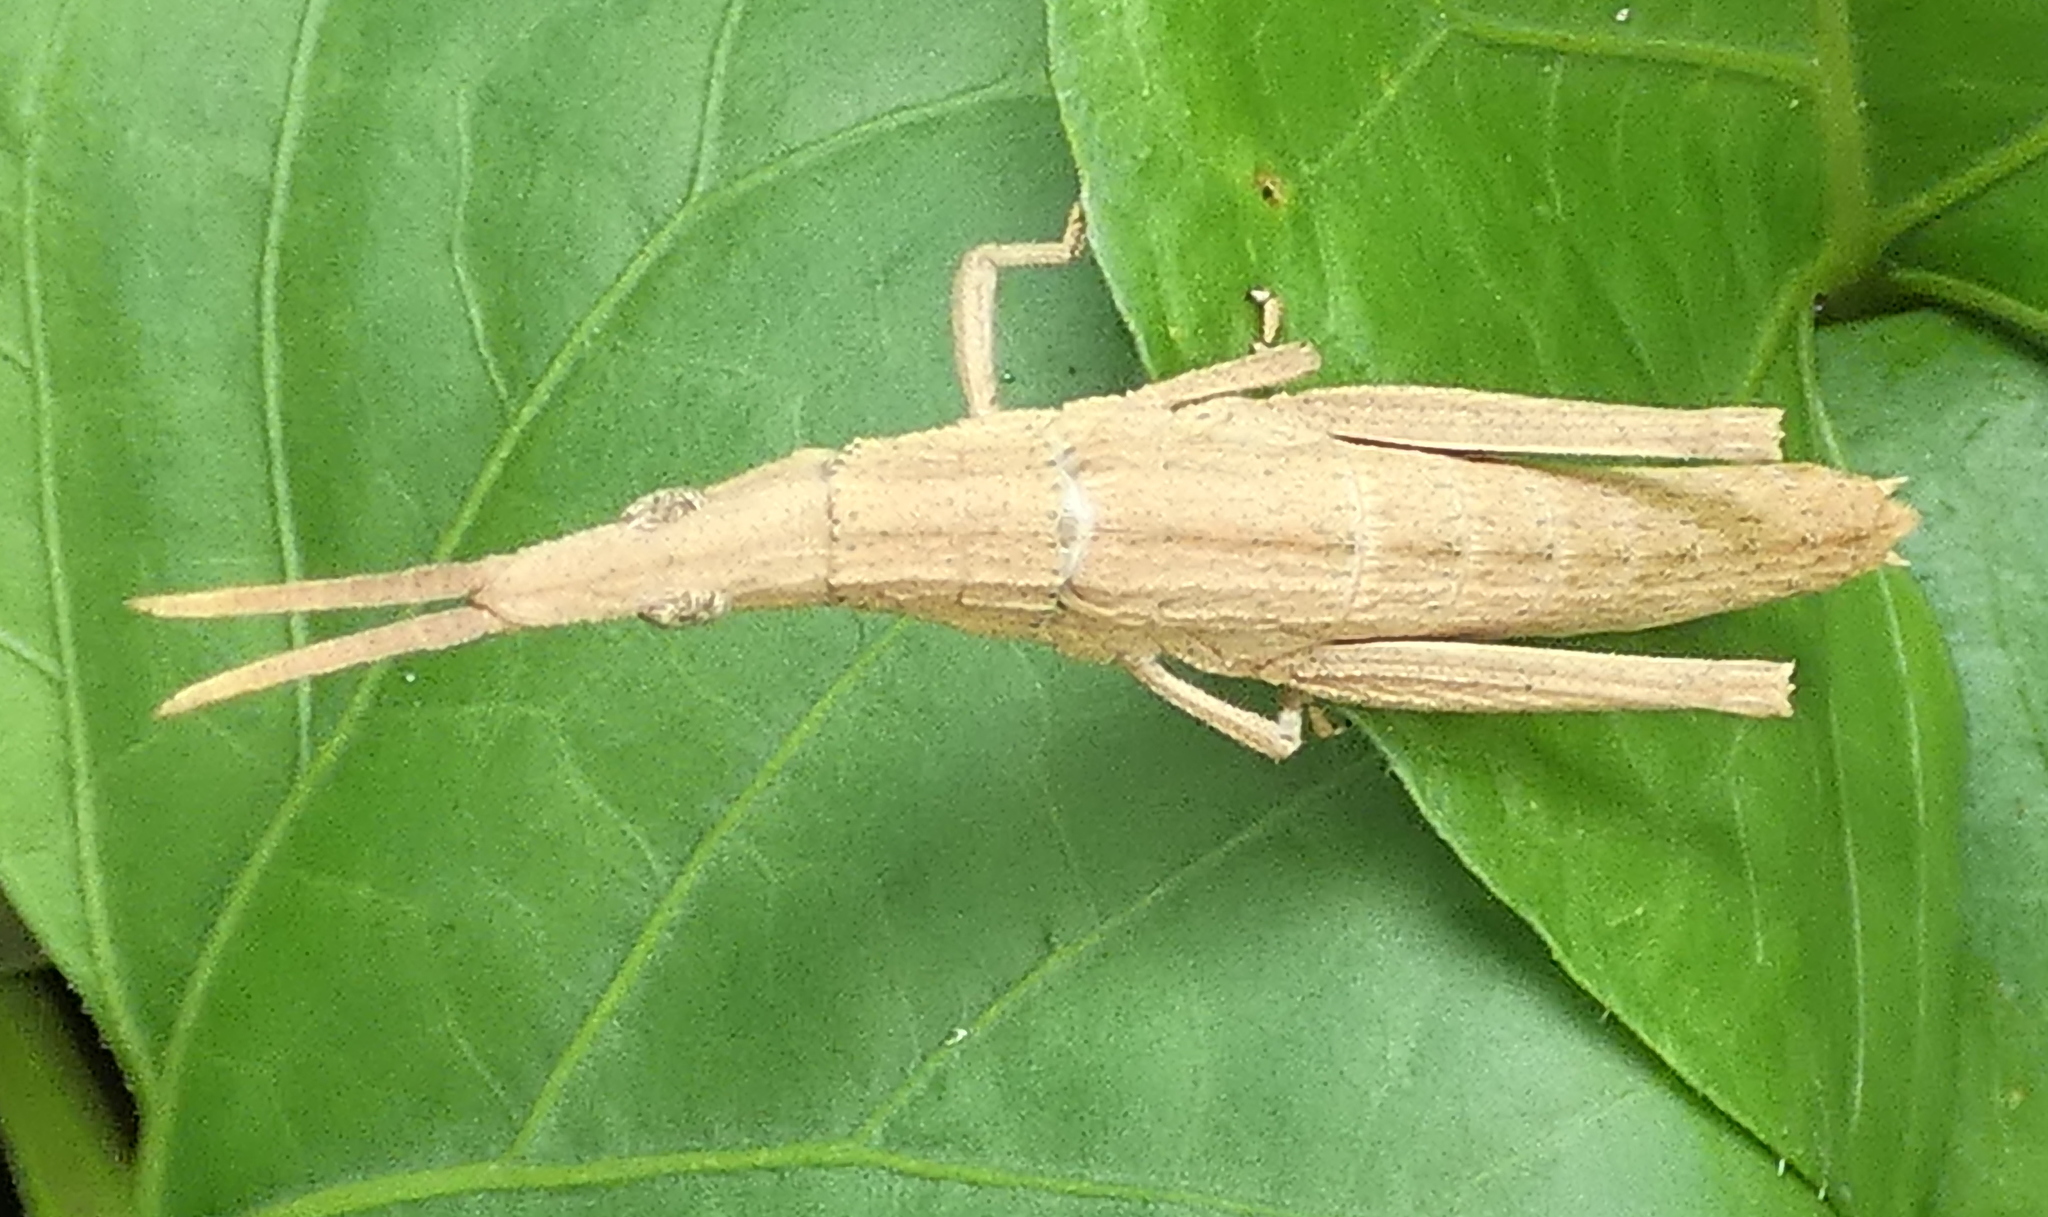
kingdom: Animalia
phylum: Arthropoda
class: Insecta
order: Orthoptera
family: Pyrgomorphidae
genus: Algete
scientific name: Algete brunneri
